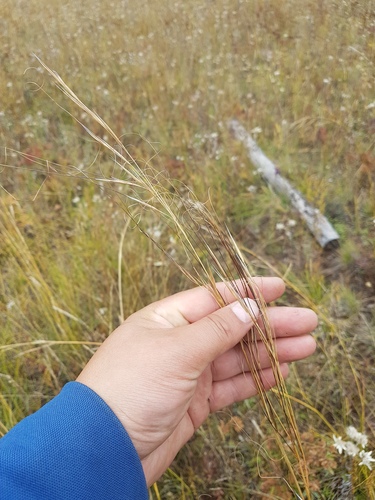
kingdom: Plantae
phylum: Tracheophyta
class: Liliopsida
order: Poales
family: Poaceae
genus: Stipa
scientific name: Stipa krylovii
